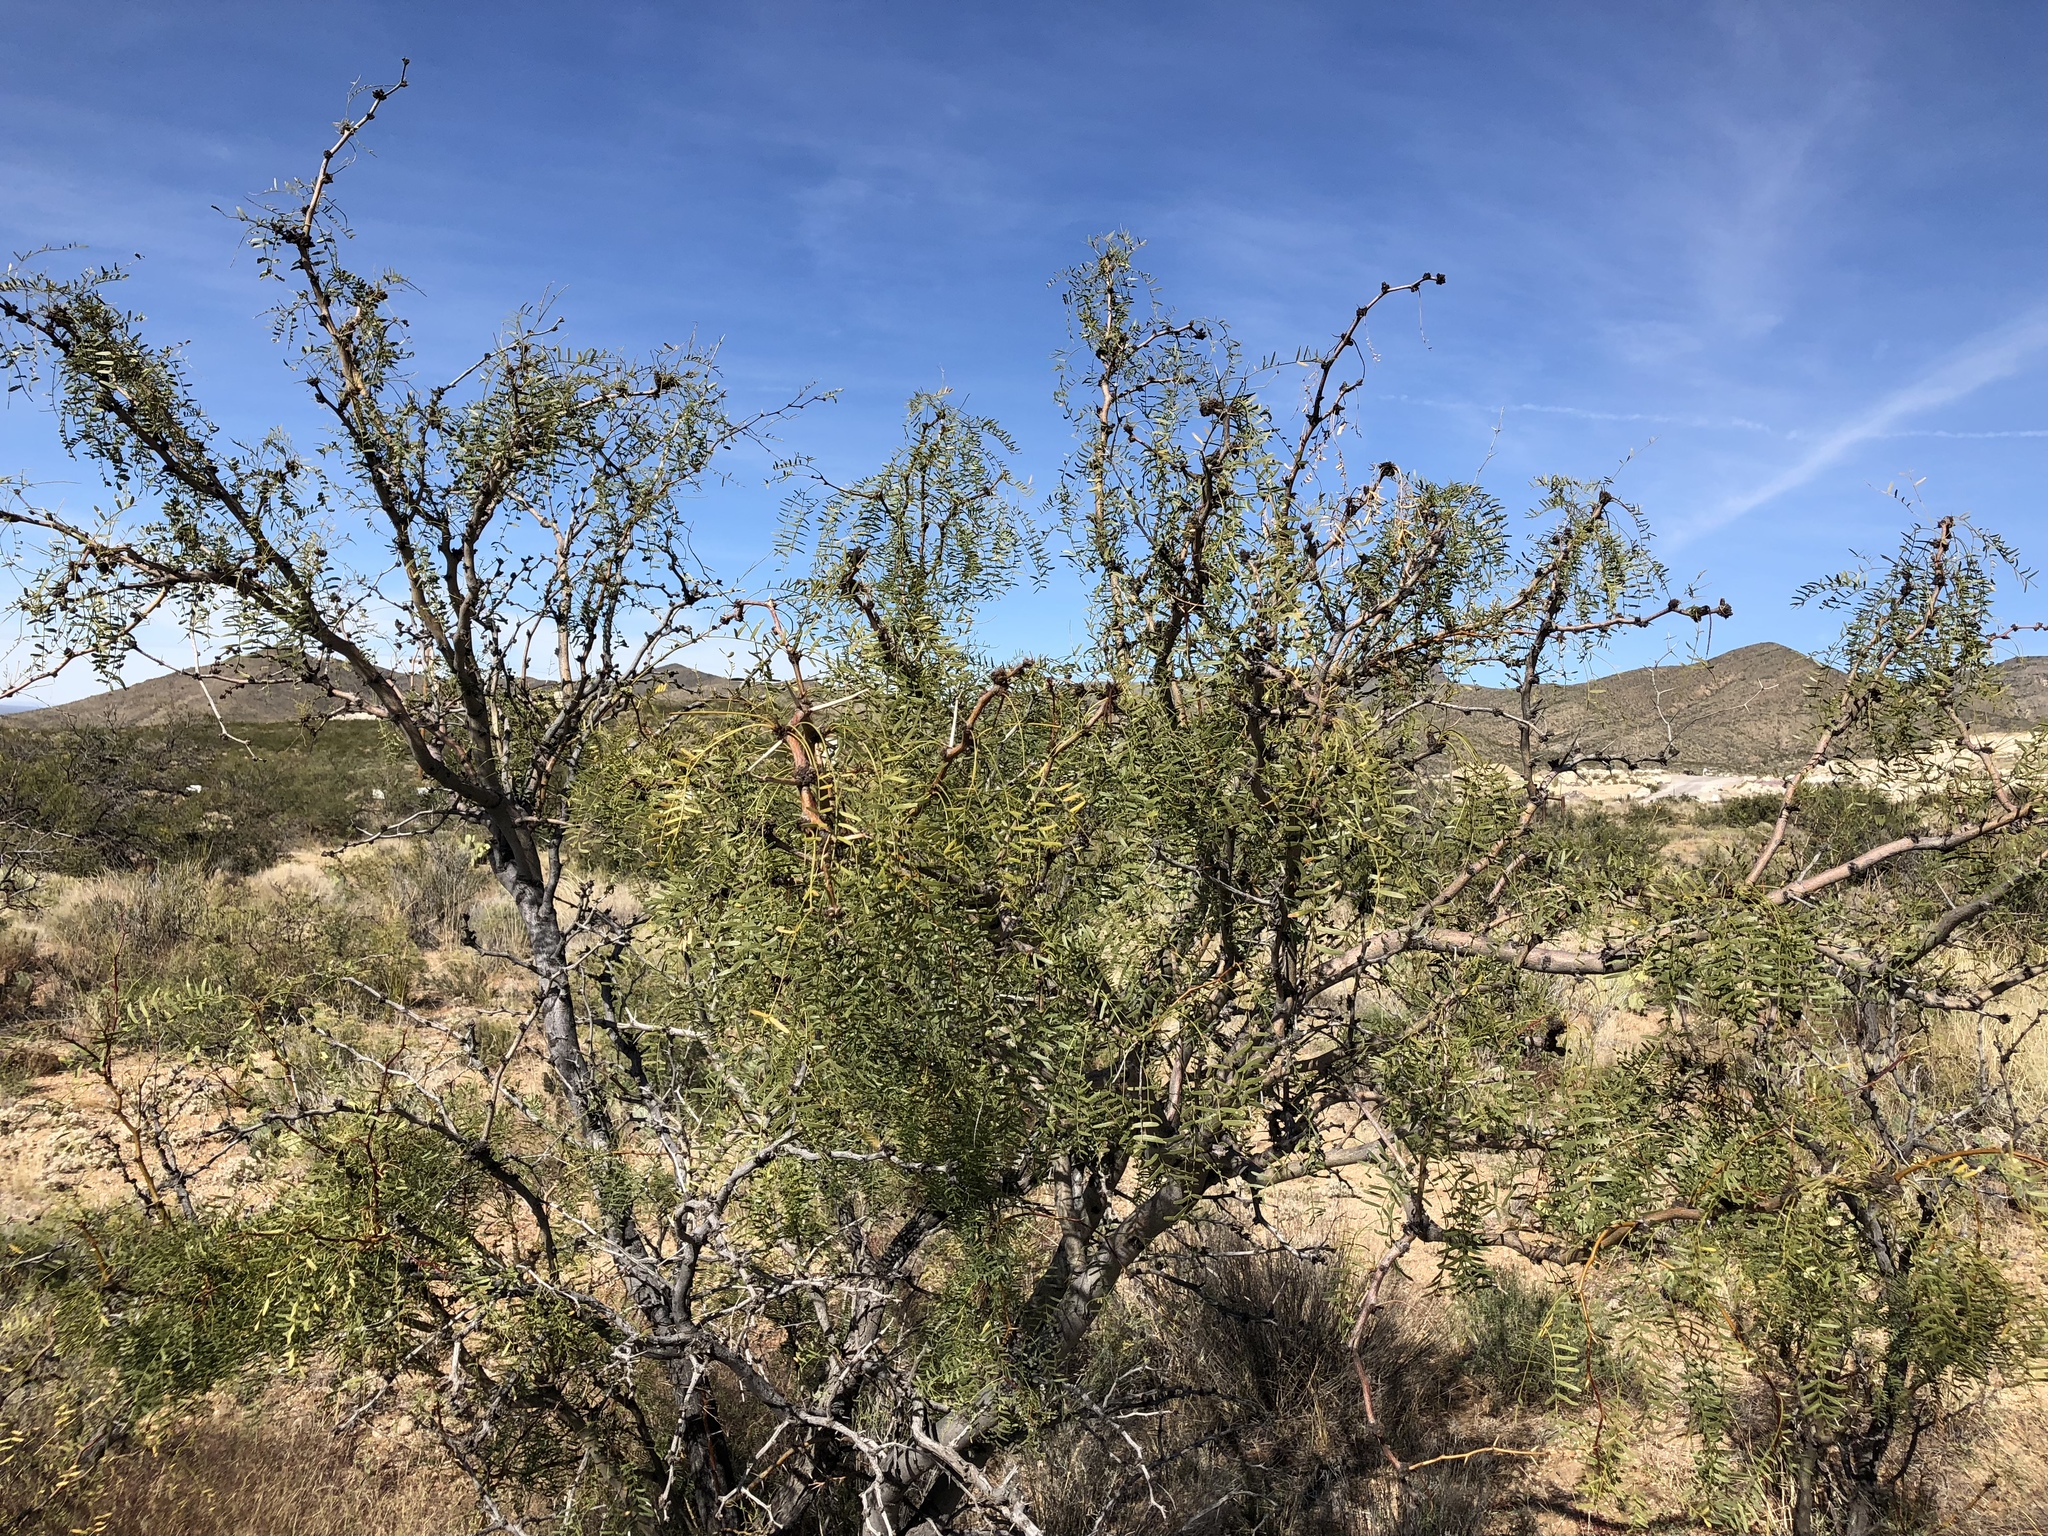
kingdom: Plantae
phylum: Tracheophyta
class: Magnoliopsida
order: Fabales
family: Fabaceae
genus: Prosopis
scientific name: Prosopis glandulosa
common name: Honey mesquite
